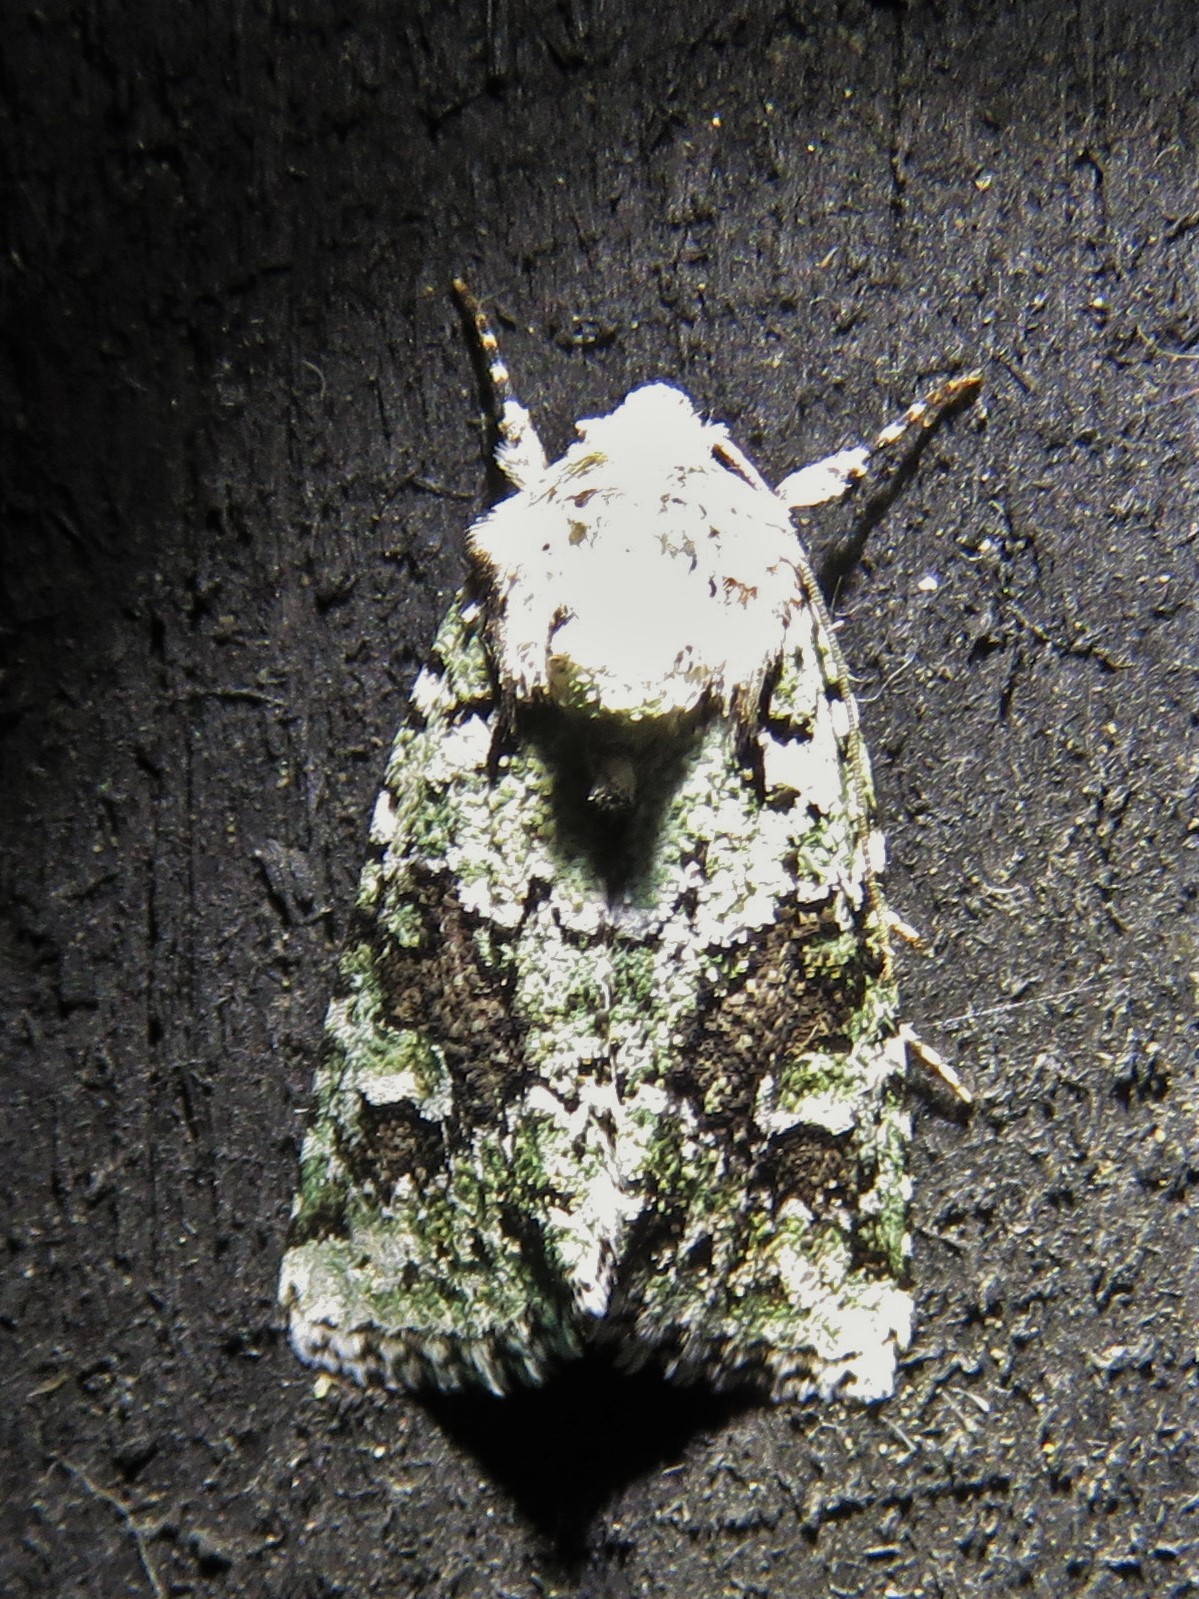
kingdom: Animalia
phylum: Arthropoda
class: Insecta
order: Lepidoptera
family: Noctuidae
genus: Lacinipolia
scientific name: Lacinipolia laudabilis
